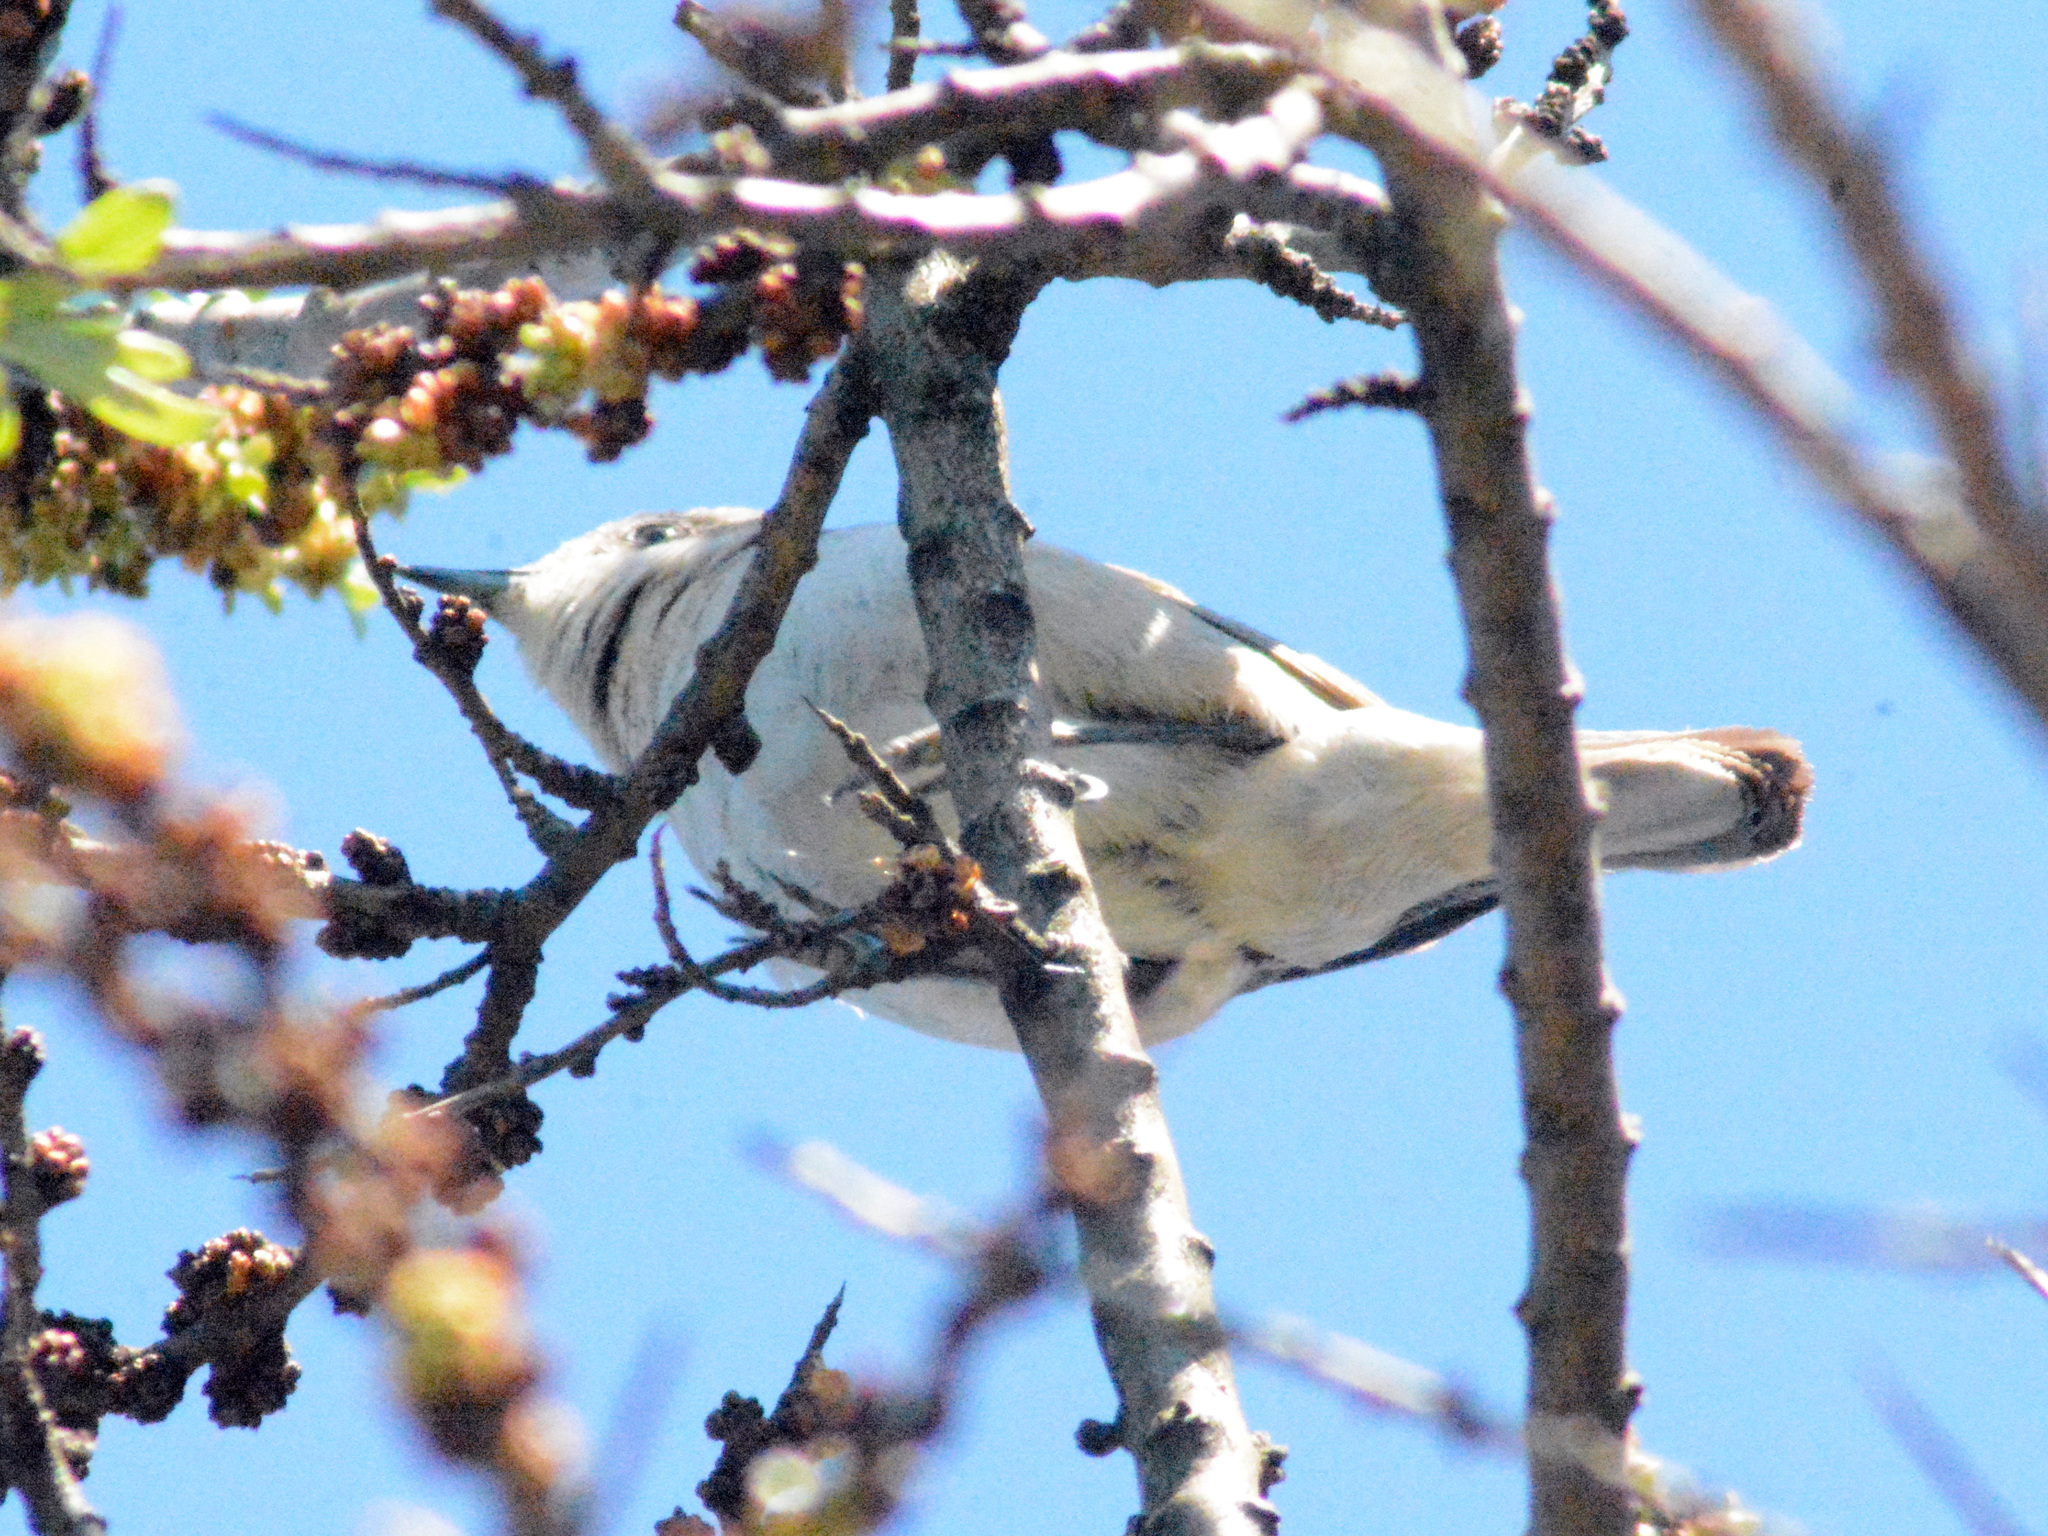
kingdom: Animalia
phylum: Chordata
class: Aves
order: Passeriformes
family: Sylviidae
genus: Sylvia
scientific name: Sylvia curruca
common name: Lesser whitethroat
